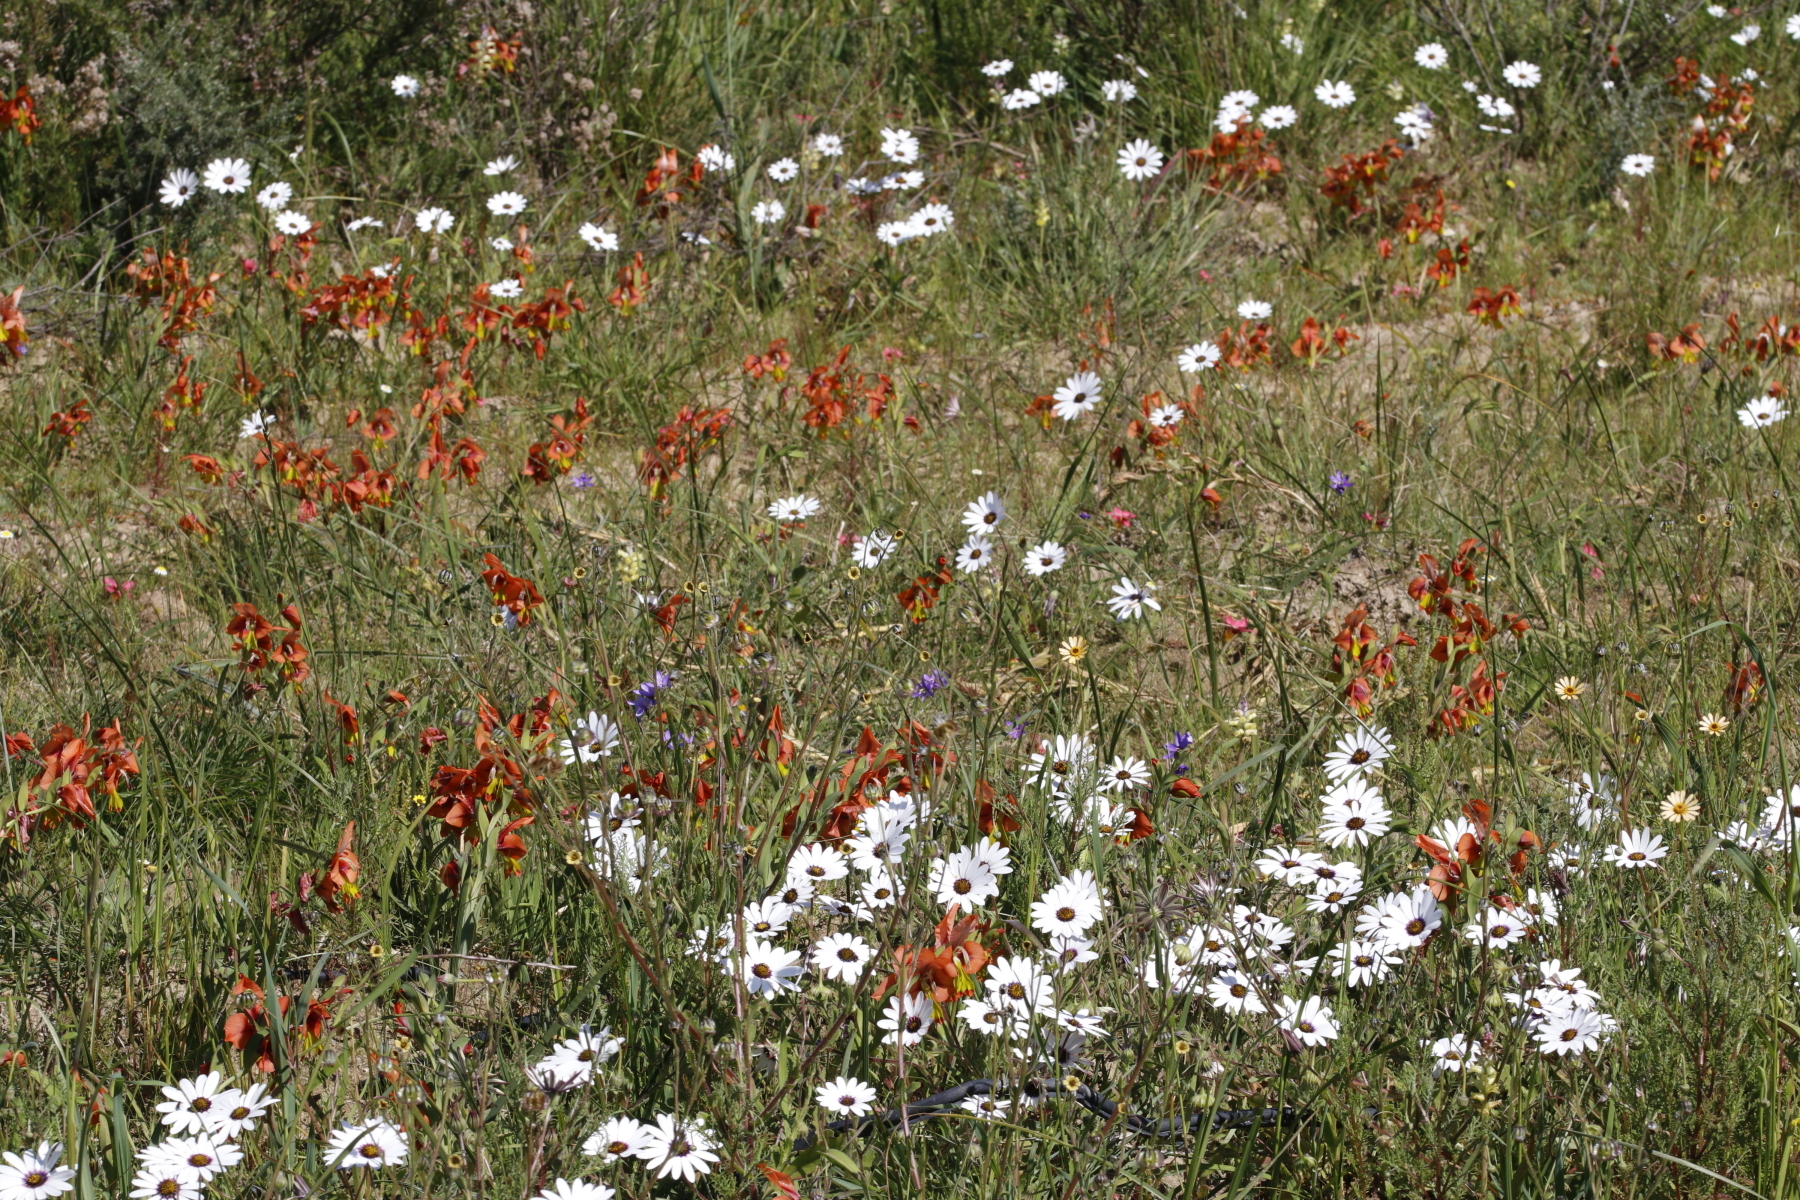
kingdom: Plantae
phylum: Tracheophyta
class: Liliopsida
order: Asparagales
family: Iridaceae
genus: Gladiolus
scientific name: Gladiolus alatus
